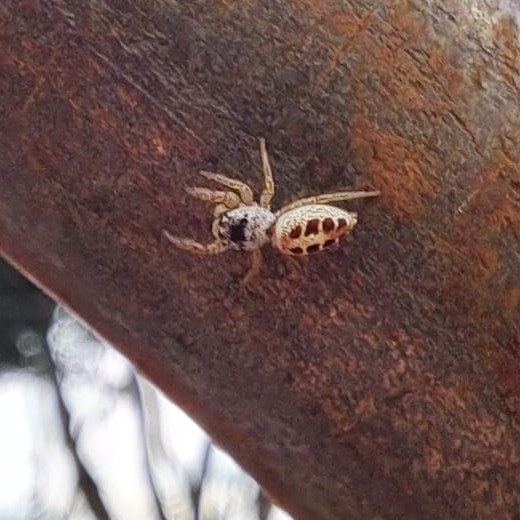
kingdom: Animalia
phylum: Arthropoda
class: Arachnida
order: Araneae
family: Salticidae
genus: Metaphidippus
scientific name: Metaphidippus chera
